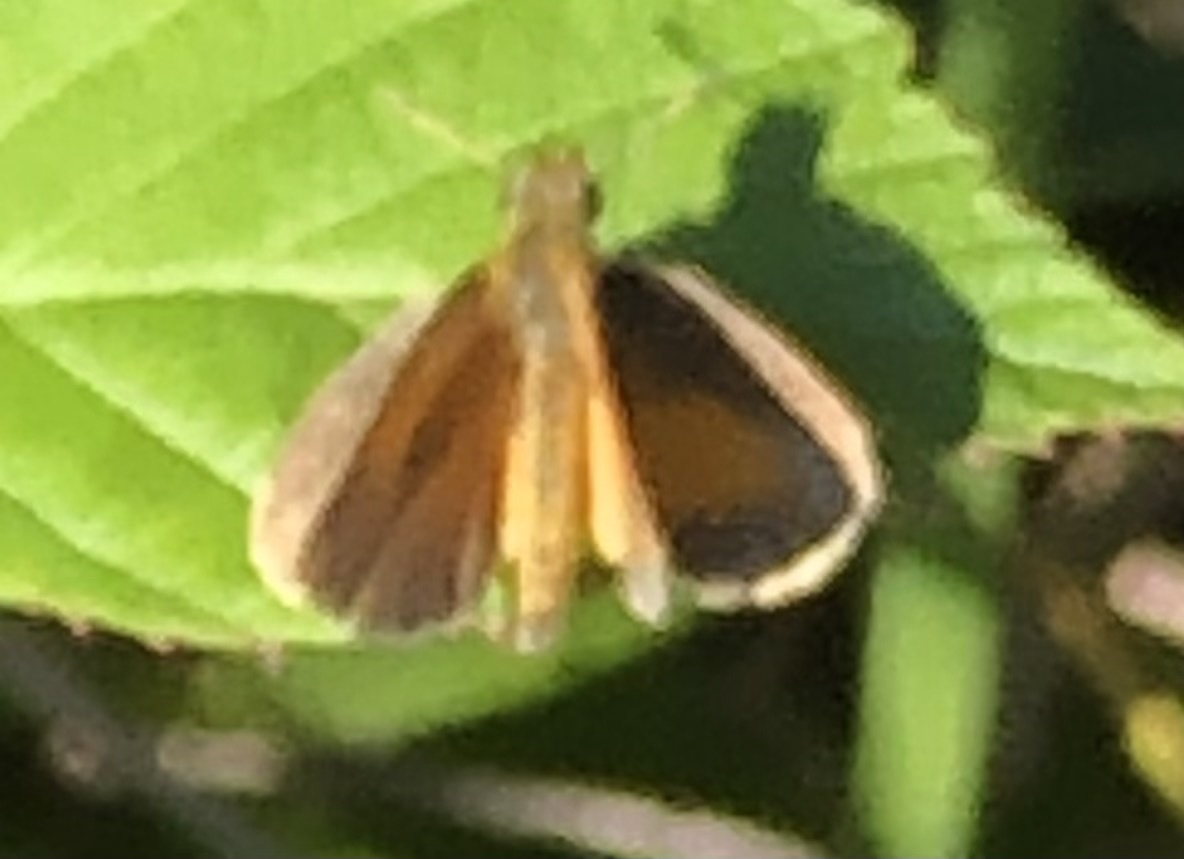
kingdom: Animalia
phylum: Arthropoda
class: Insecta
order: Lepidoptera
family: Hesperiidae
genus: Ancyloxypha
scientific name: Ancyloxypha numitor
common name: Least skipper
